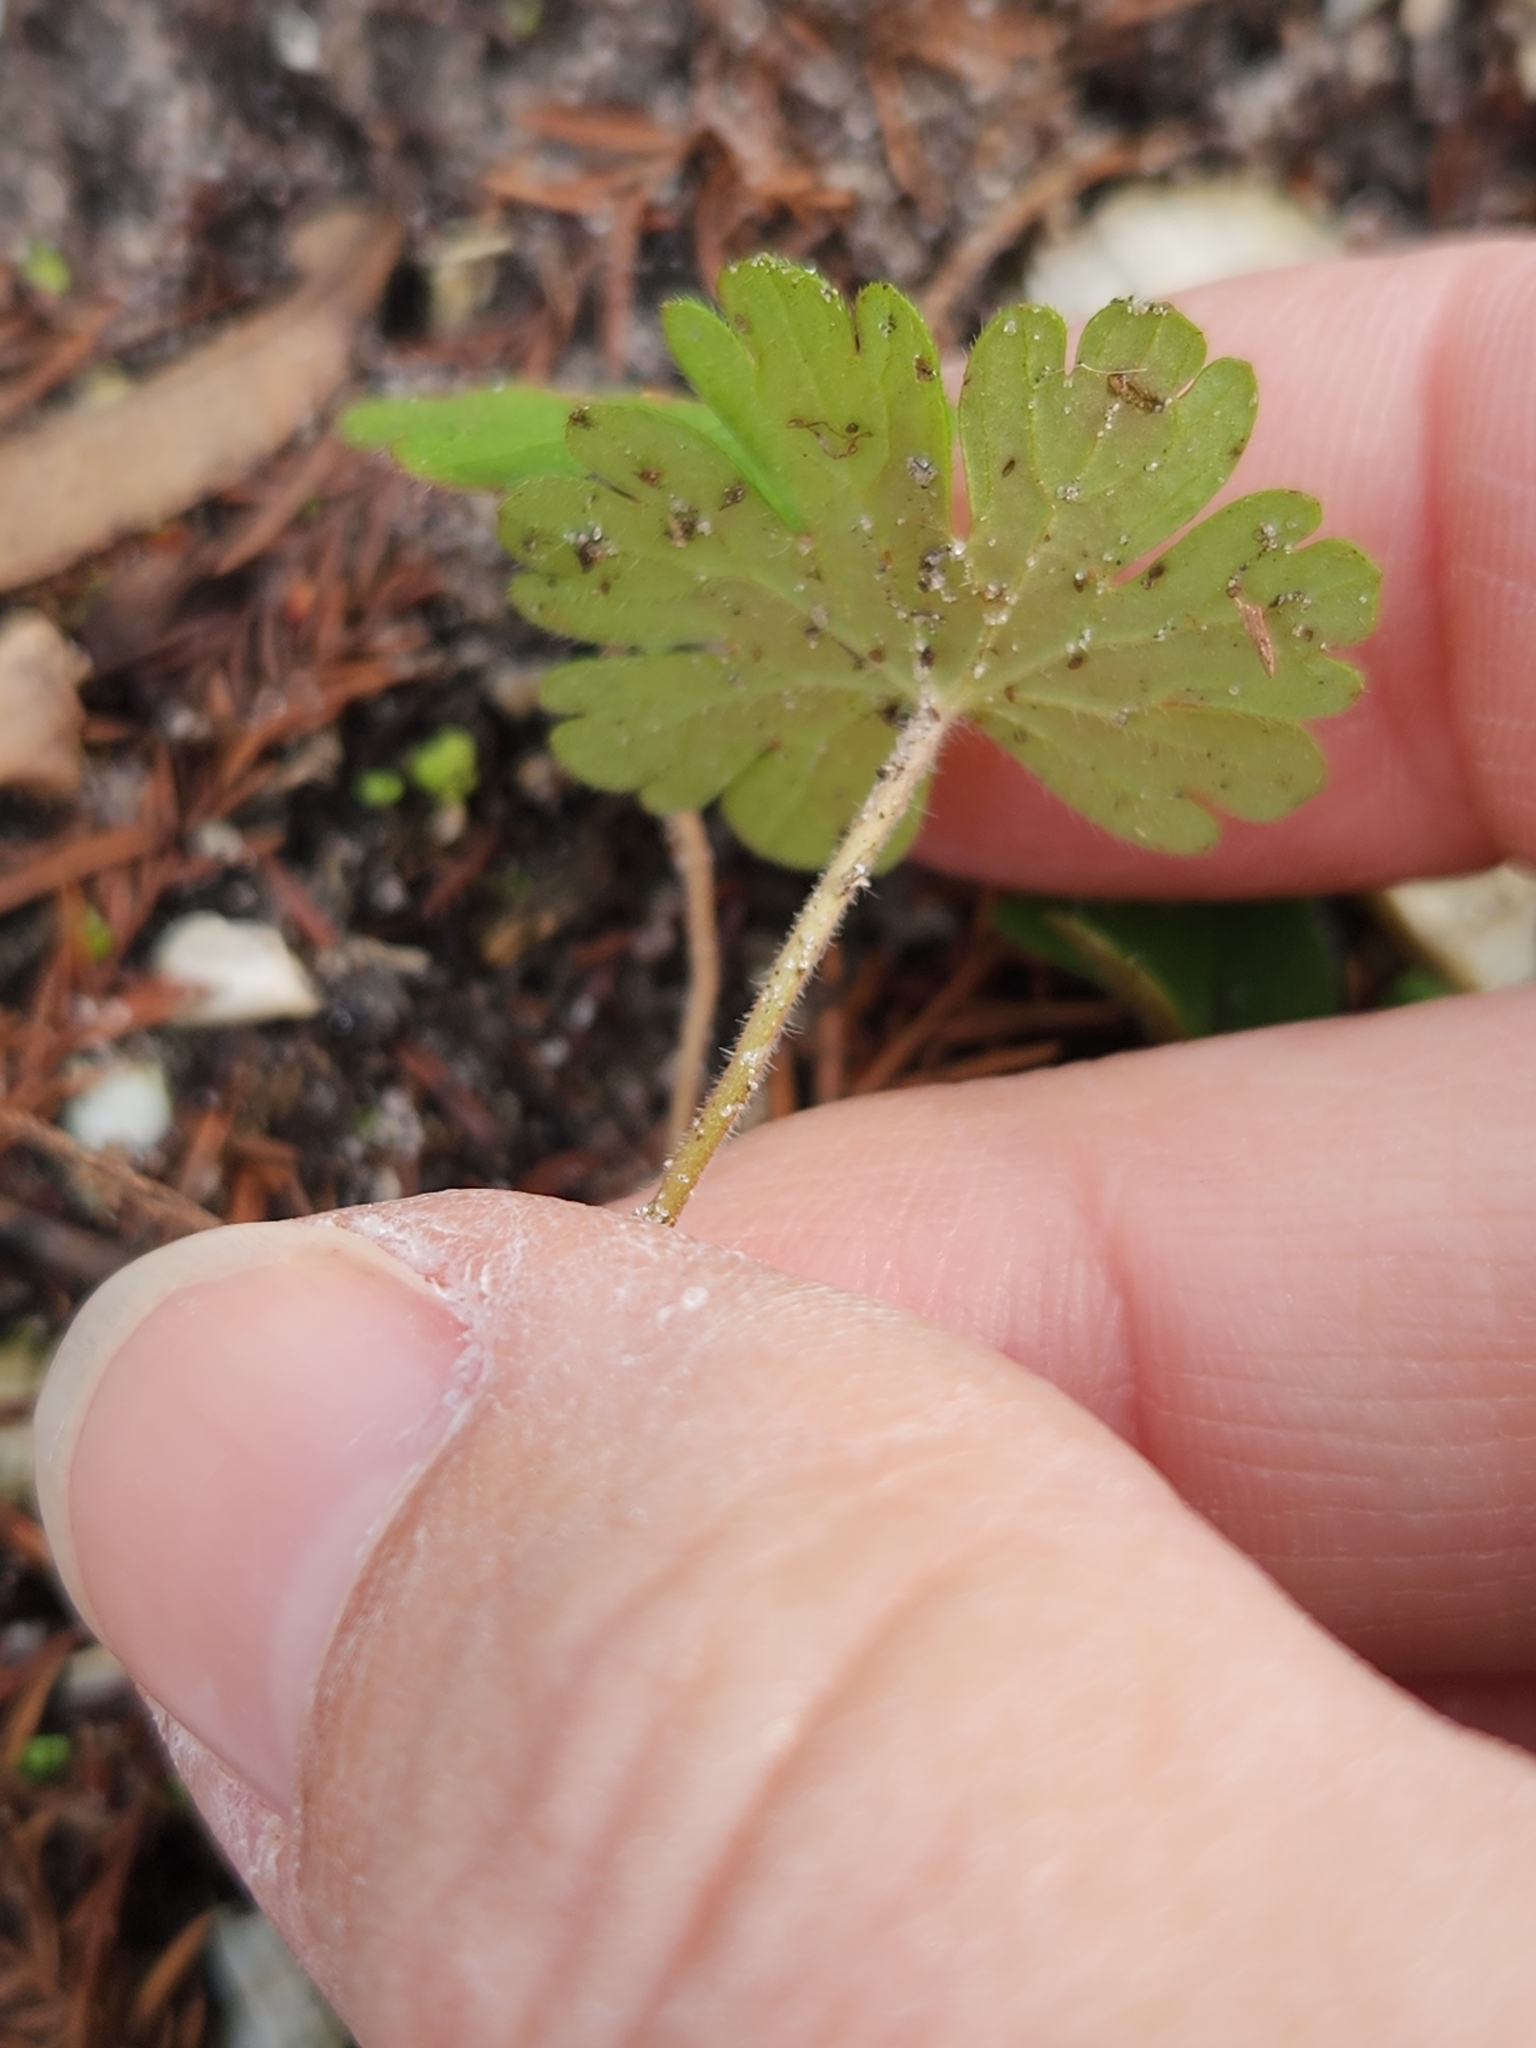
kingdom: Plantae
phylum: Tracheophyta
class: Magnoliopsida
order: Geraniales
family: Geraniaceae
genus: Geranium
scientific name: Geranium carolinianum
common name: Carolina crane's-bill
